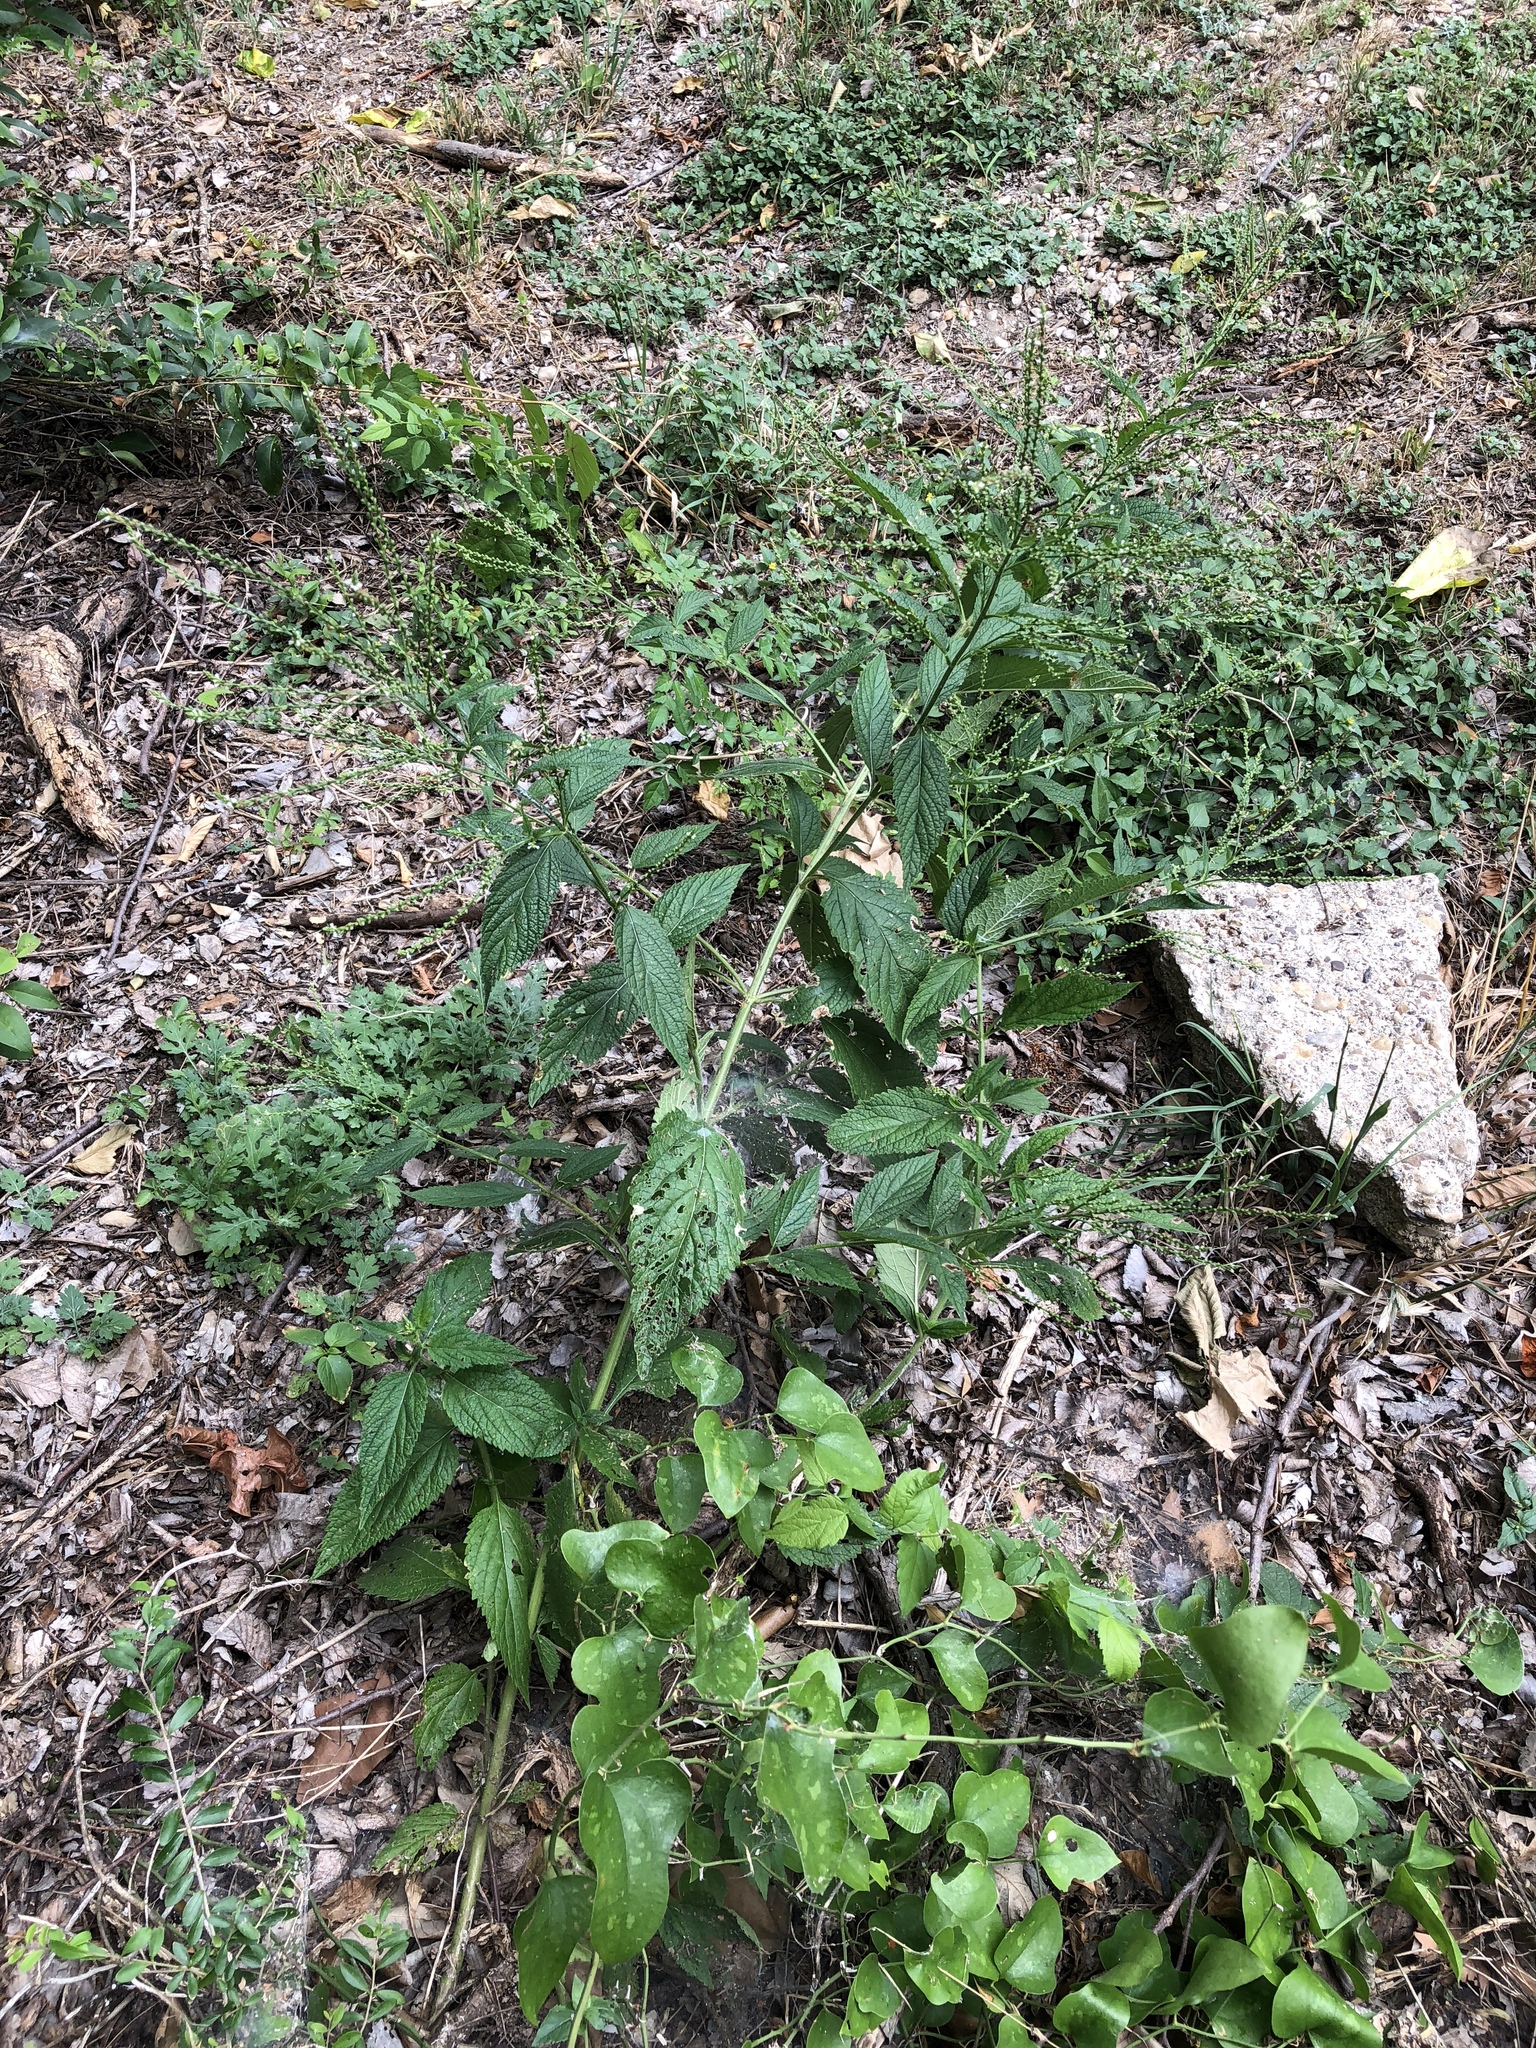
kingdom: Plantae
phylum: Tracheophyta
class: Magnoliopsida
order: Lamiales
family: Verbenaceae
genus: Verbena
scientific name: Verbena urticifolia
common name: Nettle-leaved vervain
